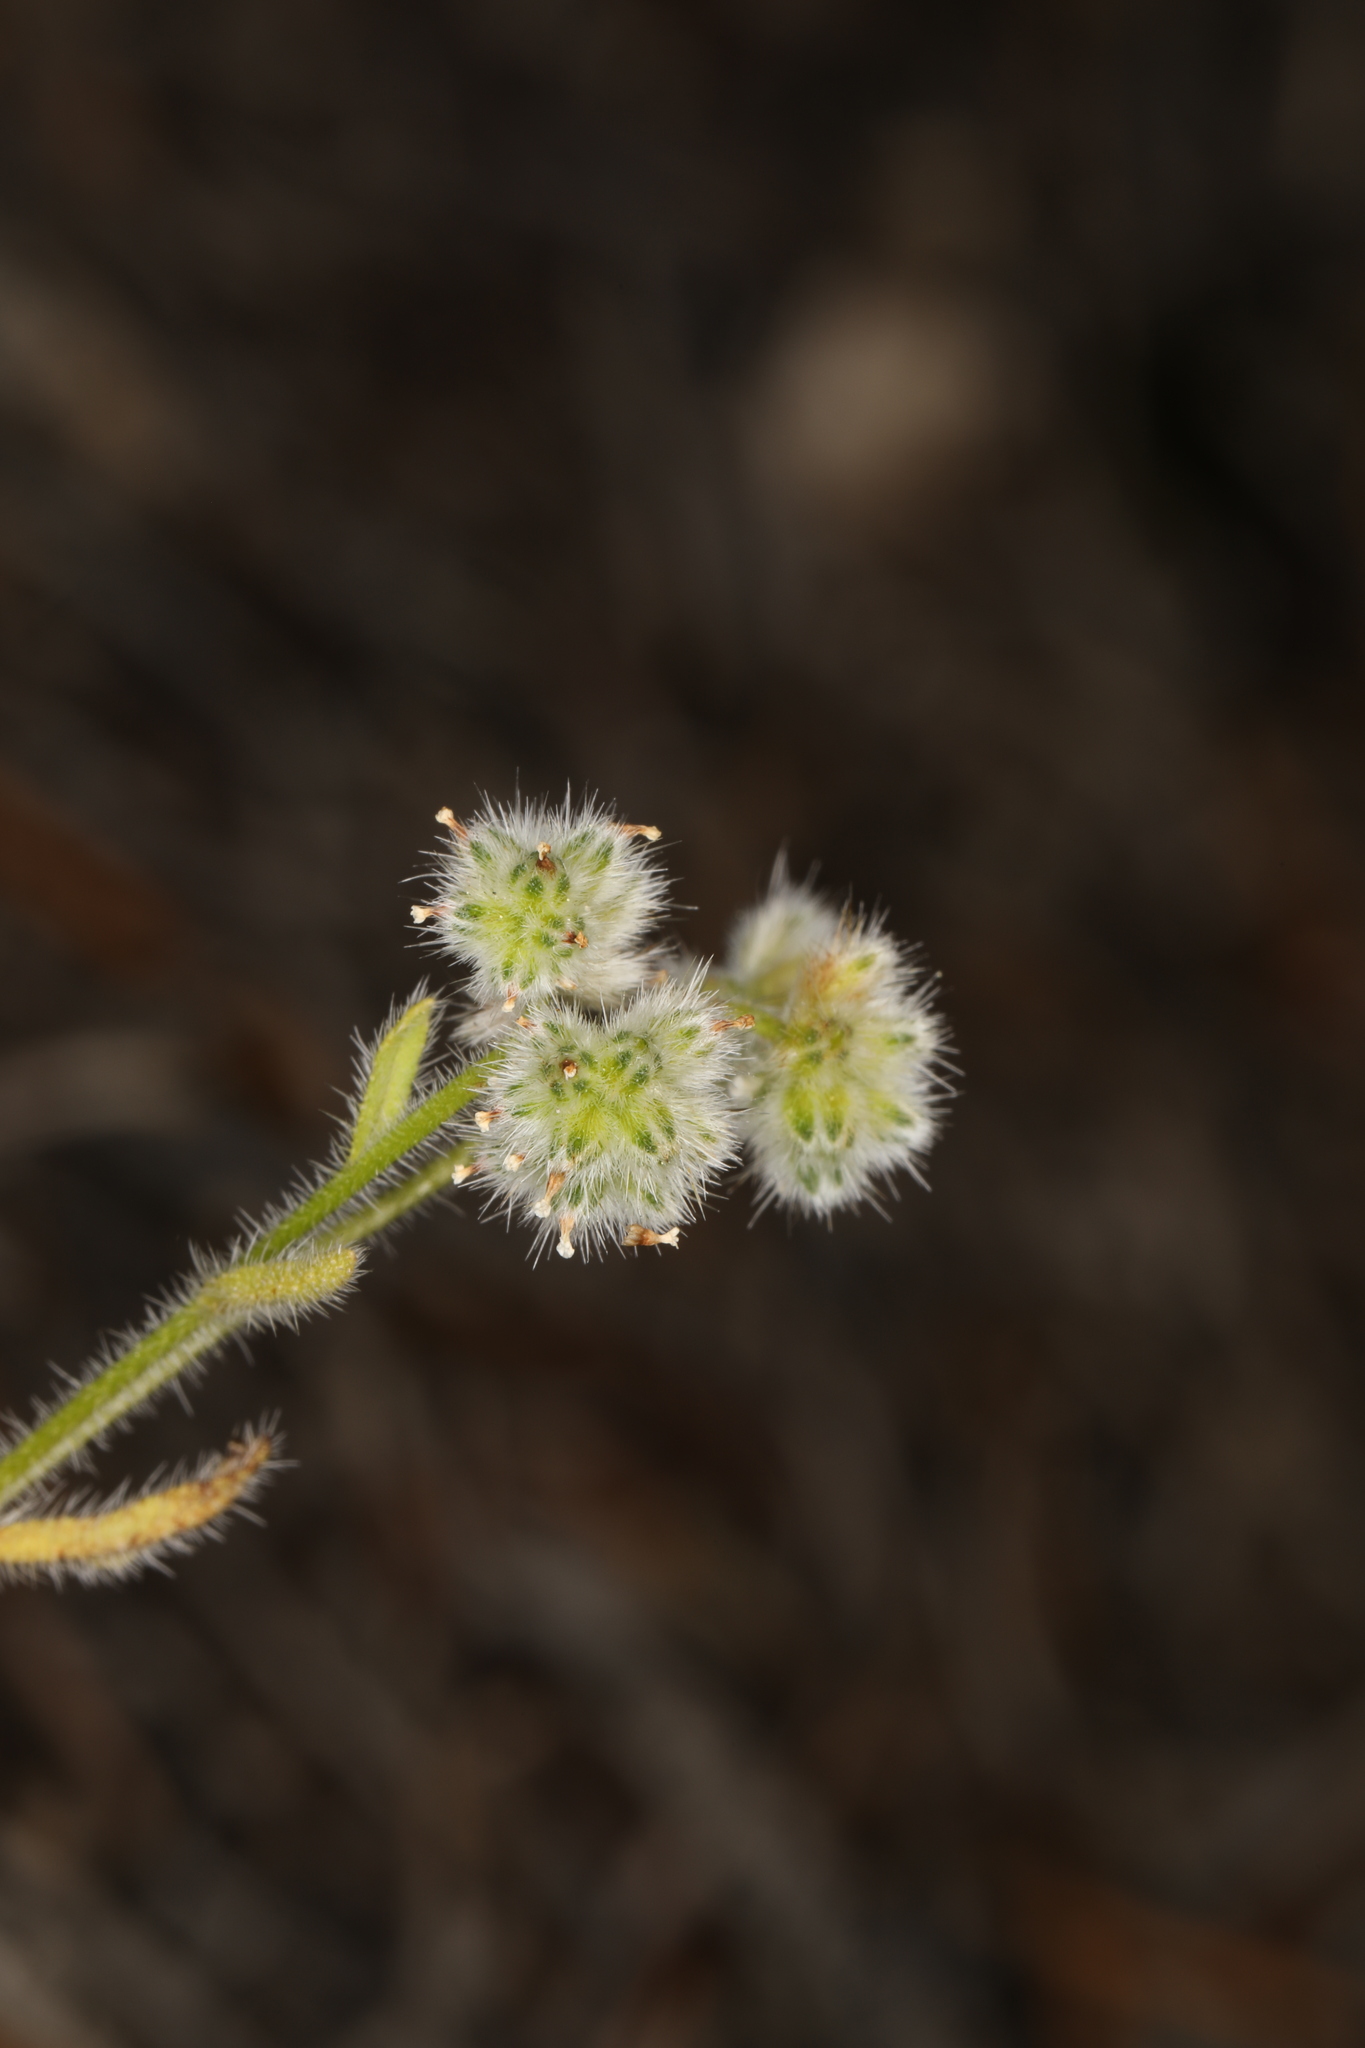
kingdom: Plantae
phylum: Tracheophyta
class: Magnoliopsida
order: Boraginales
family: Boraginaceae
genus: Cryptantha
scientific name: Cryptantha gracilis
